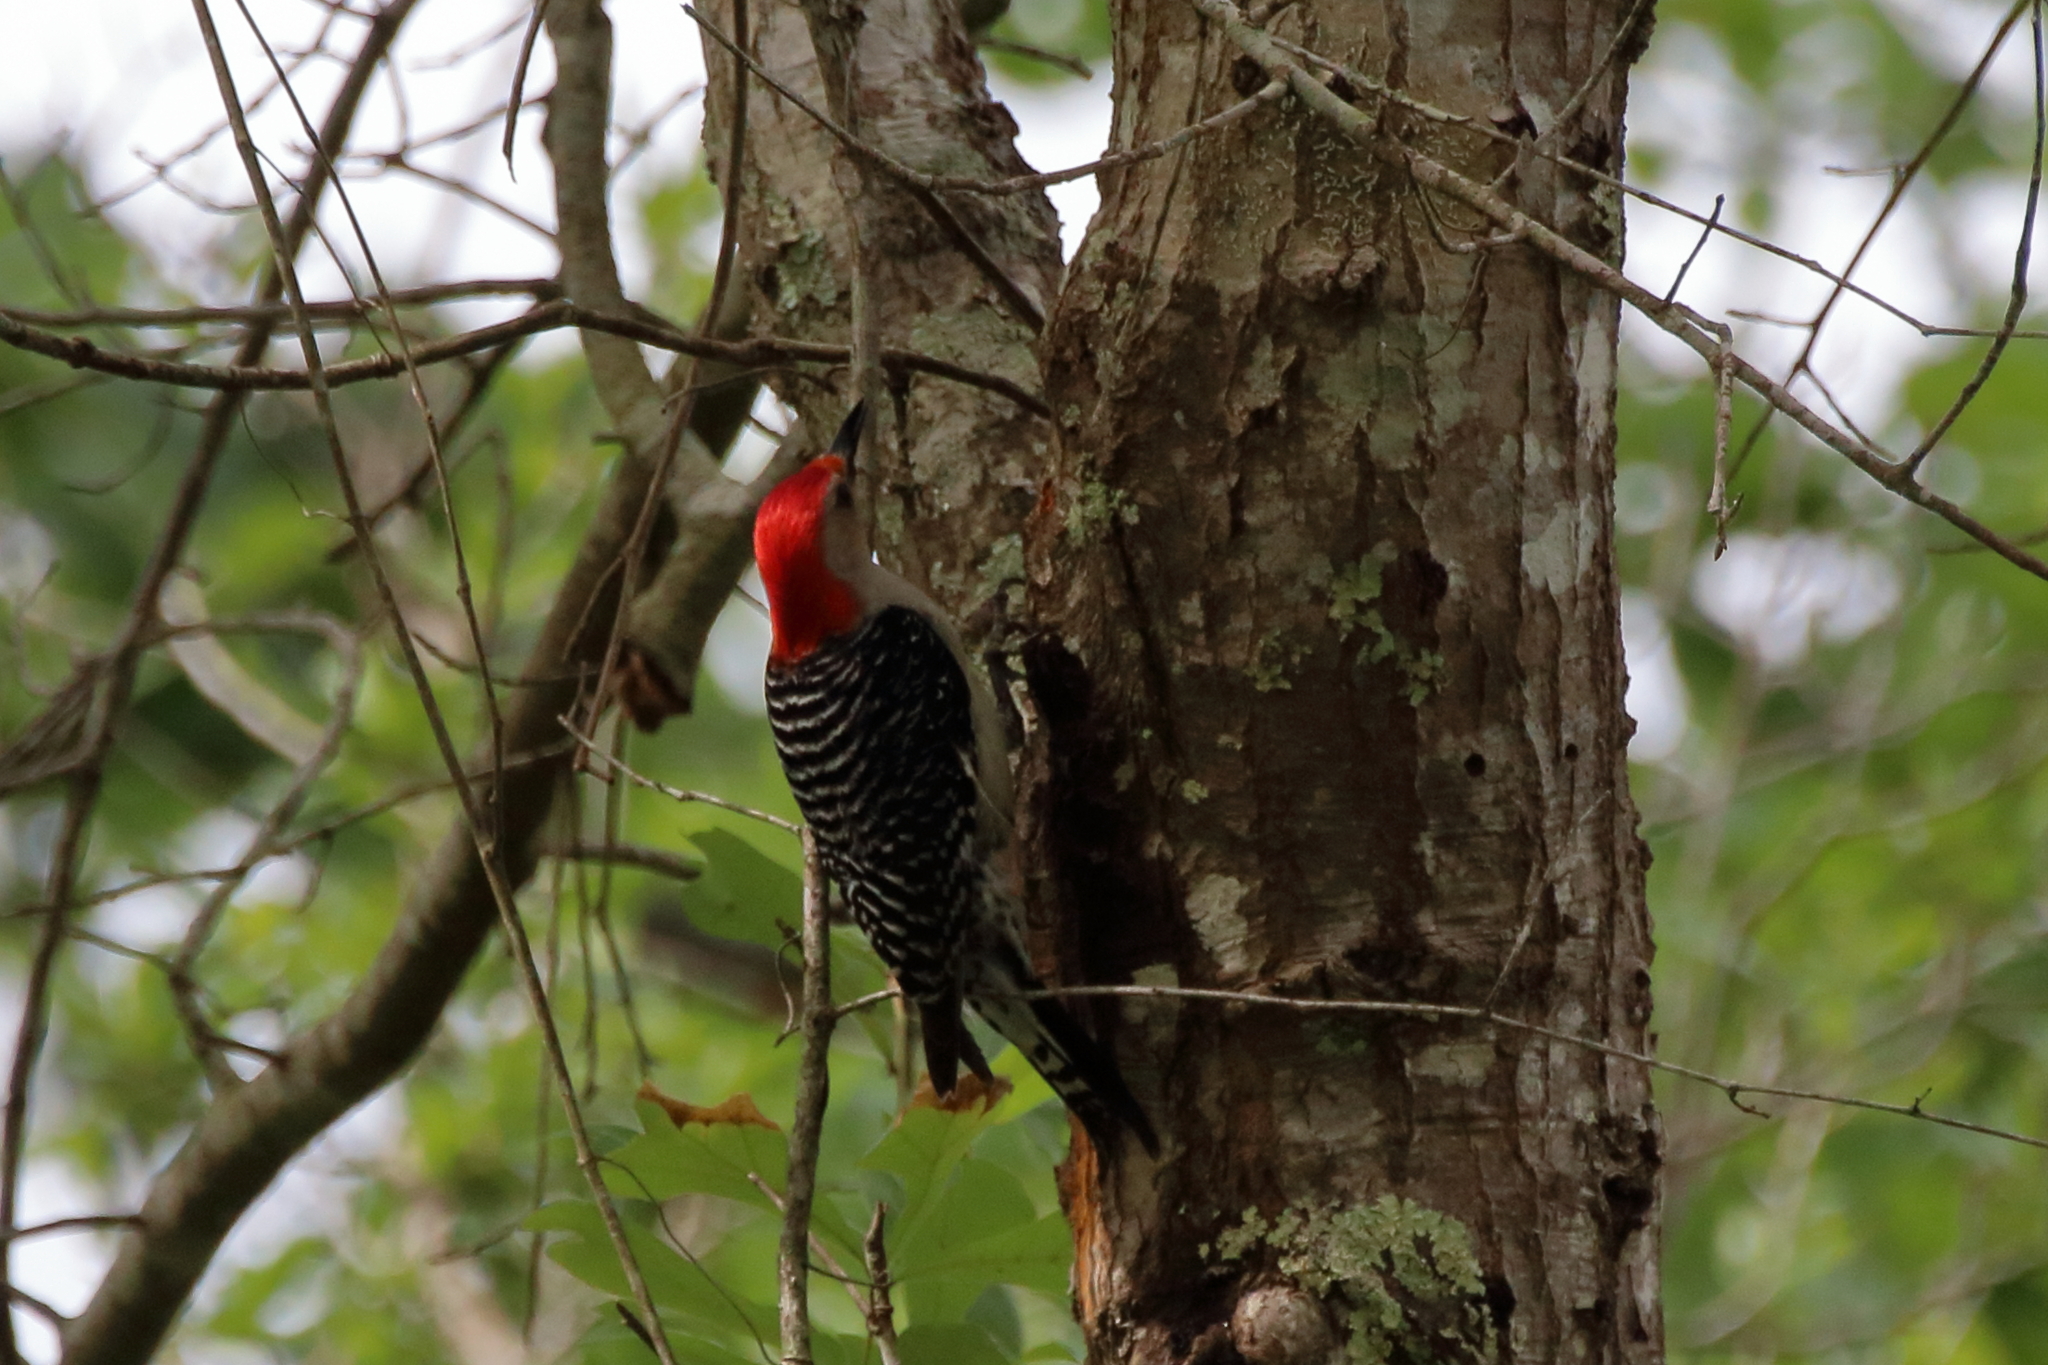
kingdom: Animalia
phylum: Chordata
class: Aves
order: Piciformes
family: Picidae
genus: Melanerpes
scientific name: Melanerpes carolinus
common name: Red-bellied woodpecker
